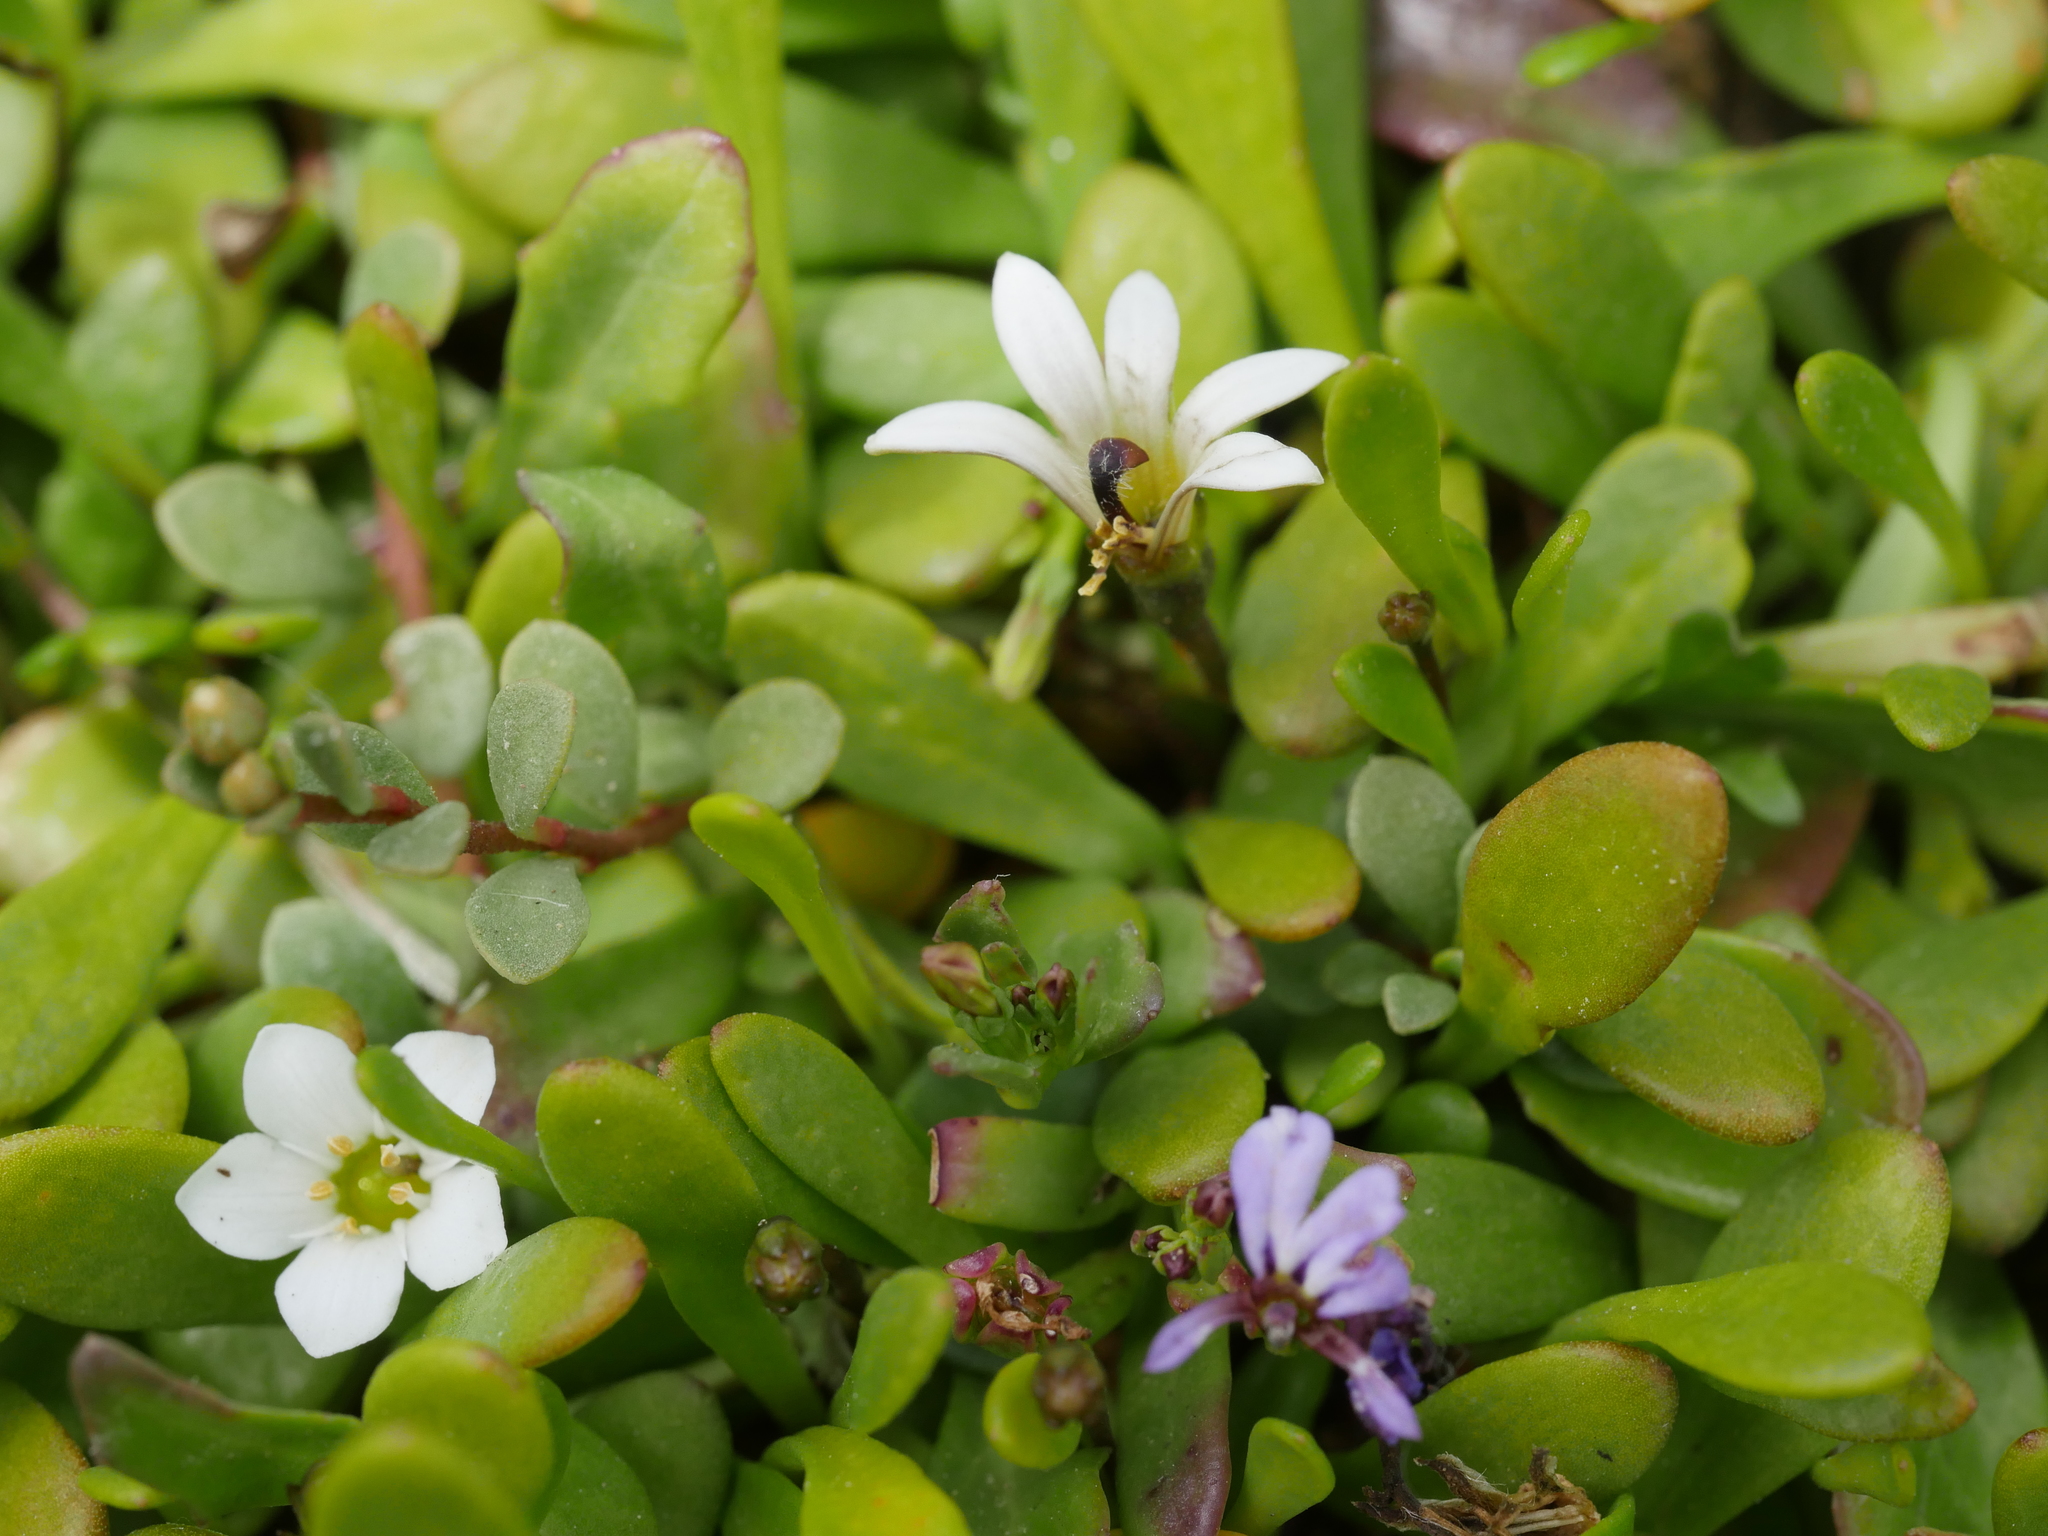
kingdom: Plantae
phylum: Tracheophyta
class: Magnoliopsida
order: Asterales
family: Goodeniaceae
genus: Goodenia
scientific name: Goodenia radicans
